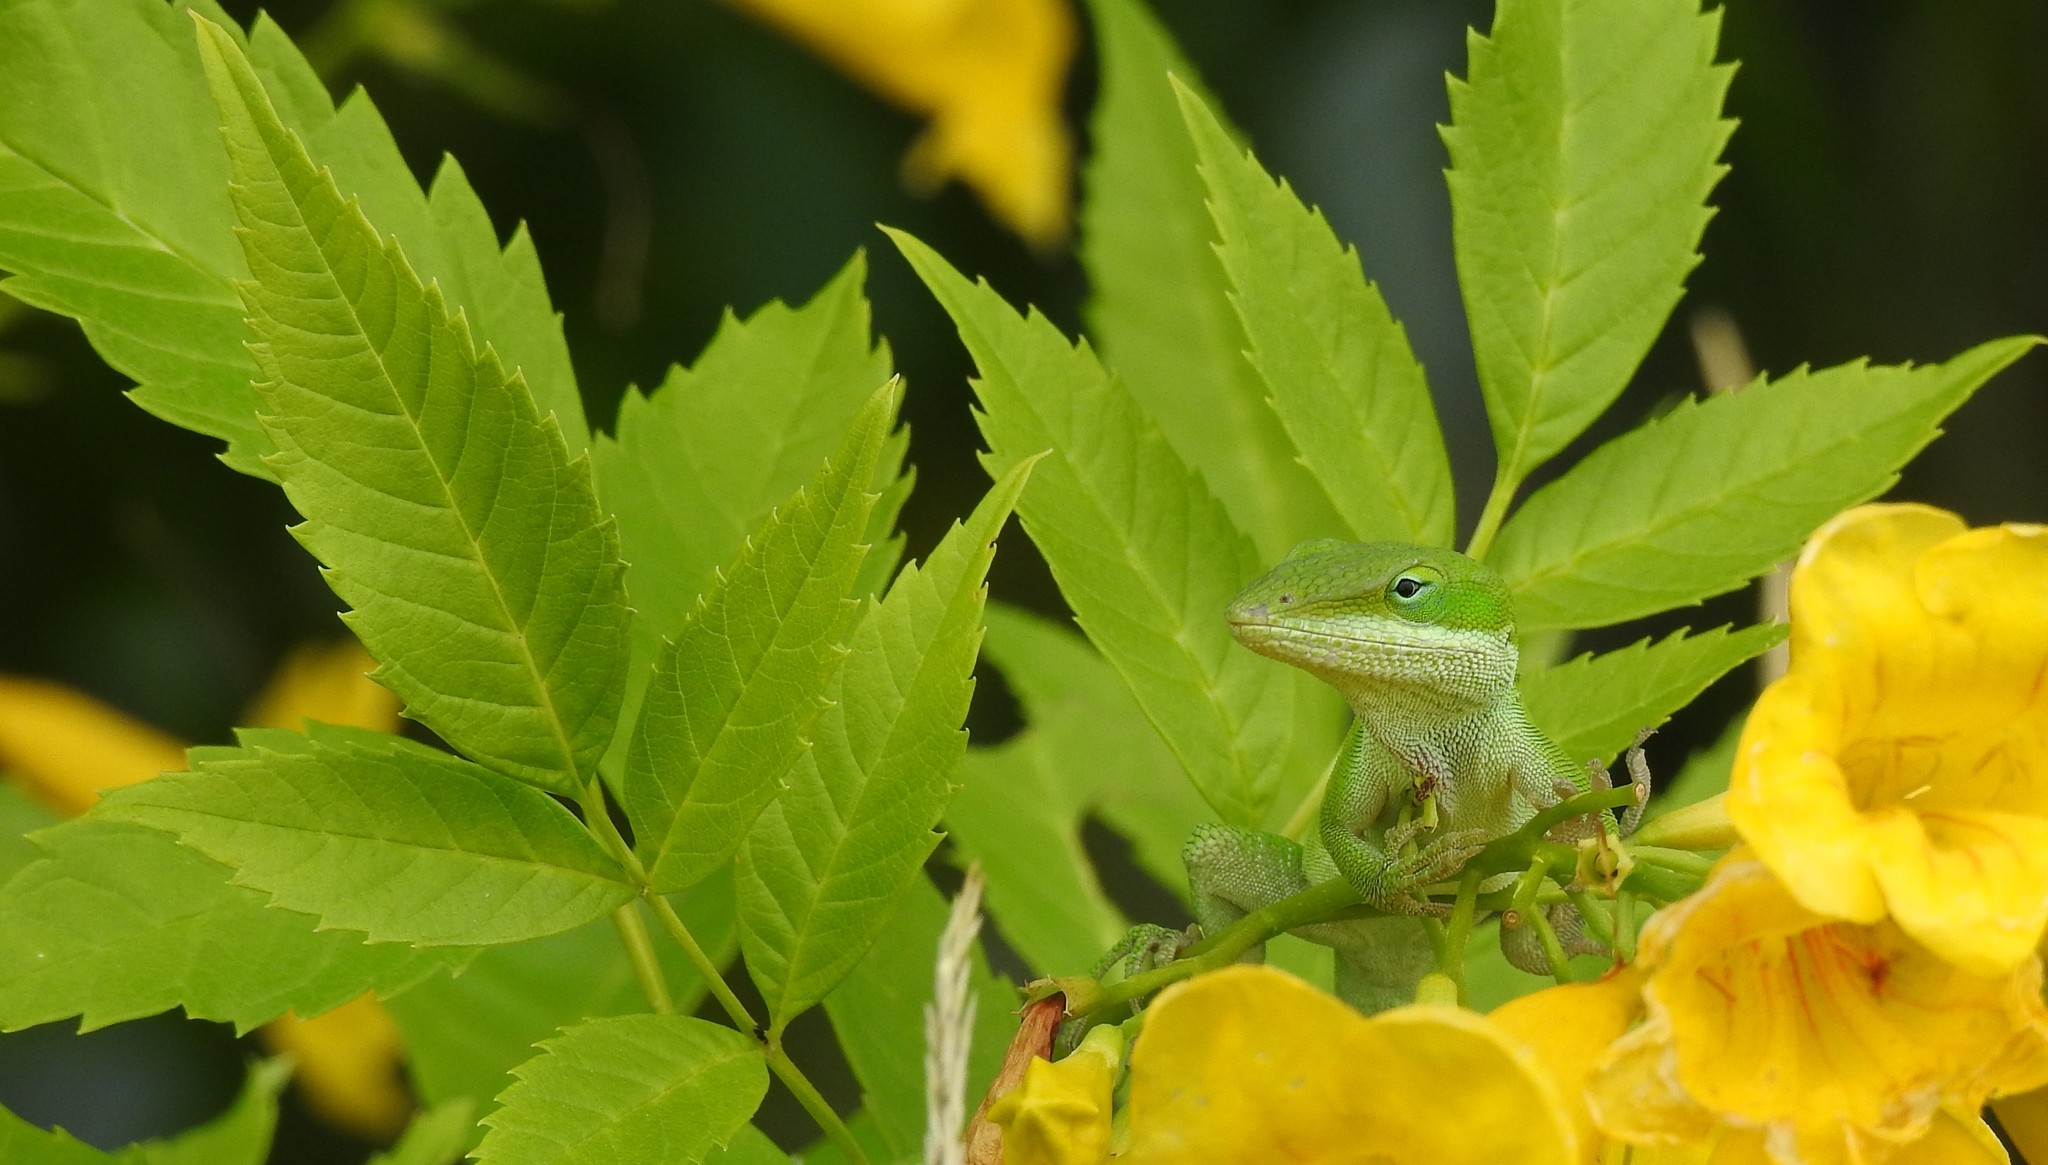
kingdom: Animalia
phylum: Chordata
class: Squamata
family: Dactyloidae
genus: Anolis
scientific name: Anolis carolinensis
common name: Green anole
